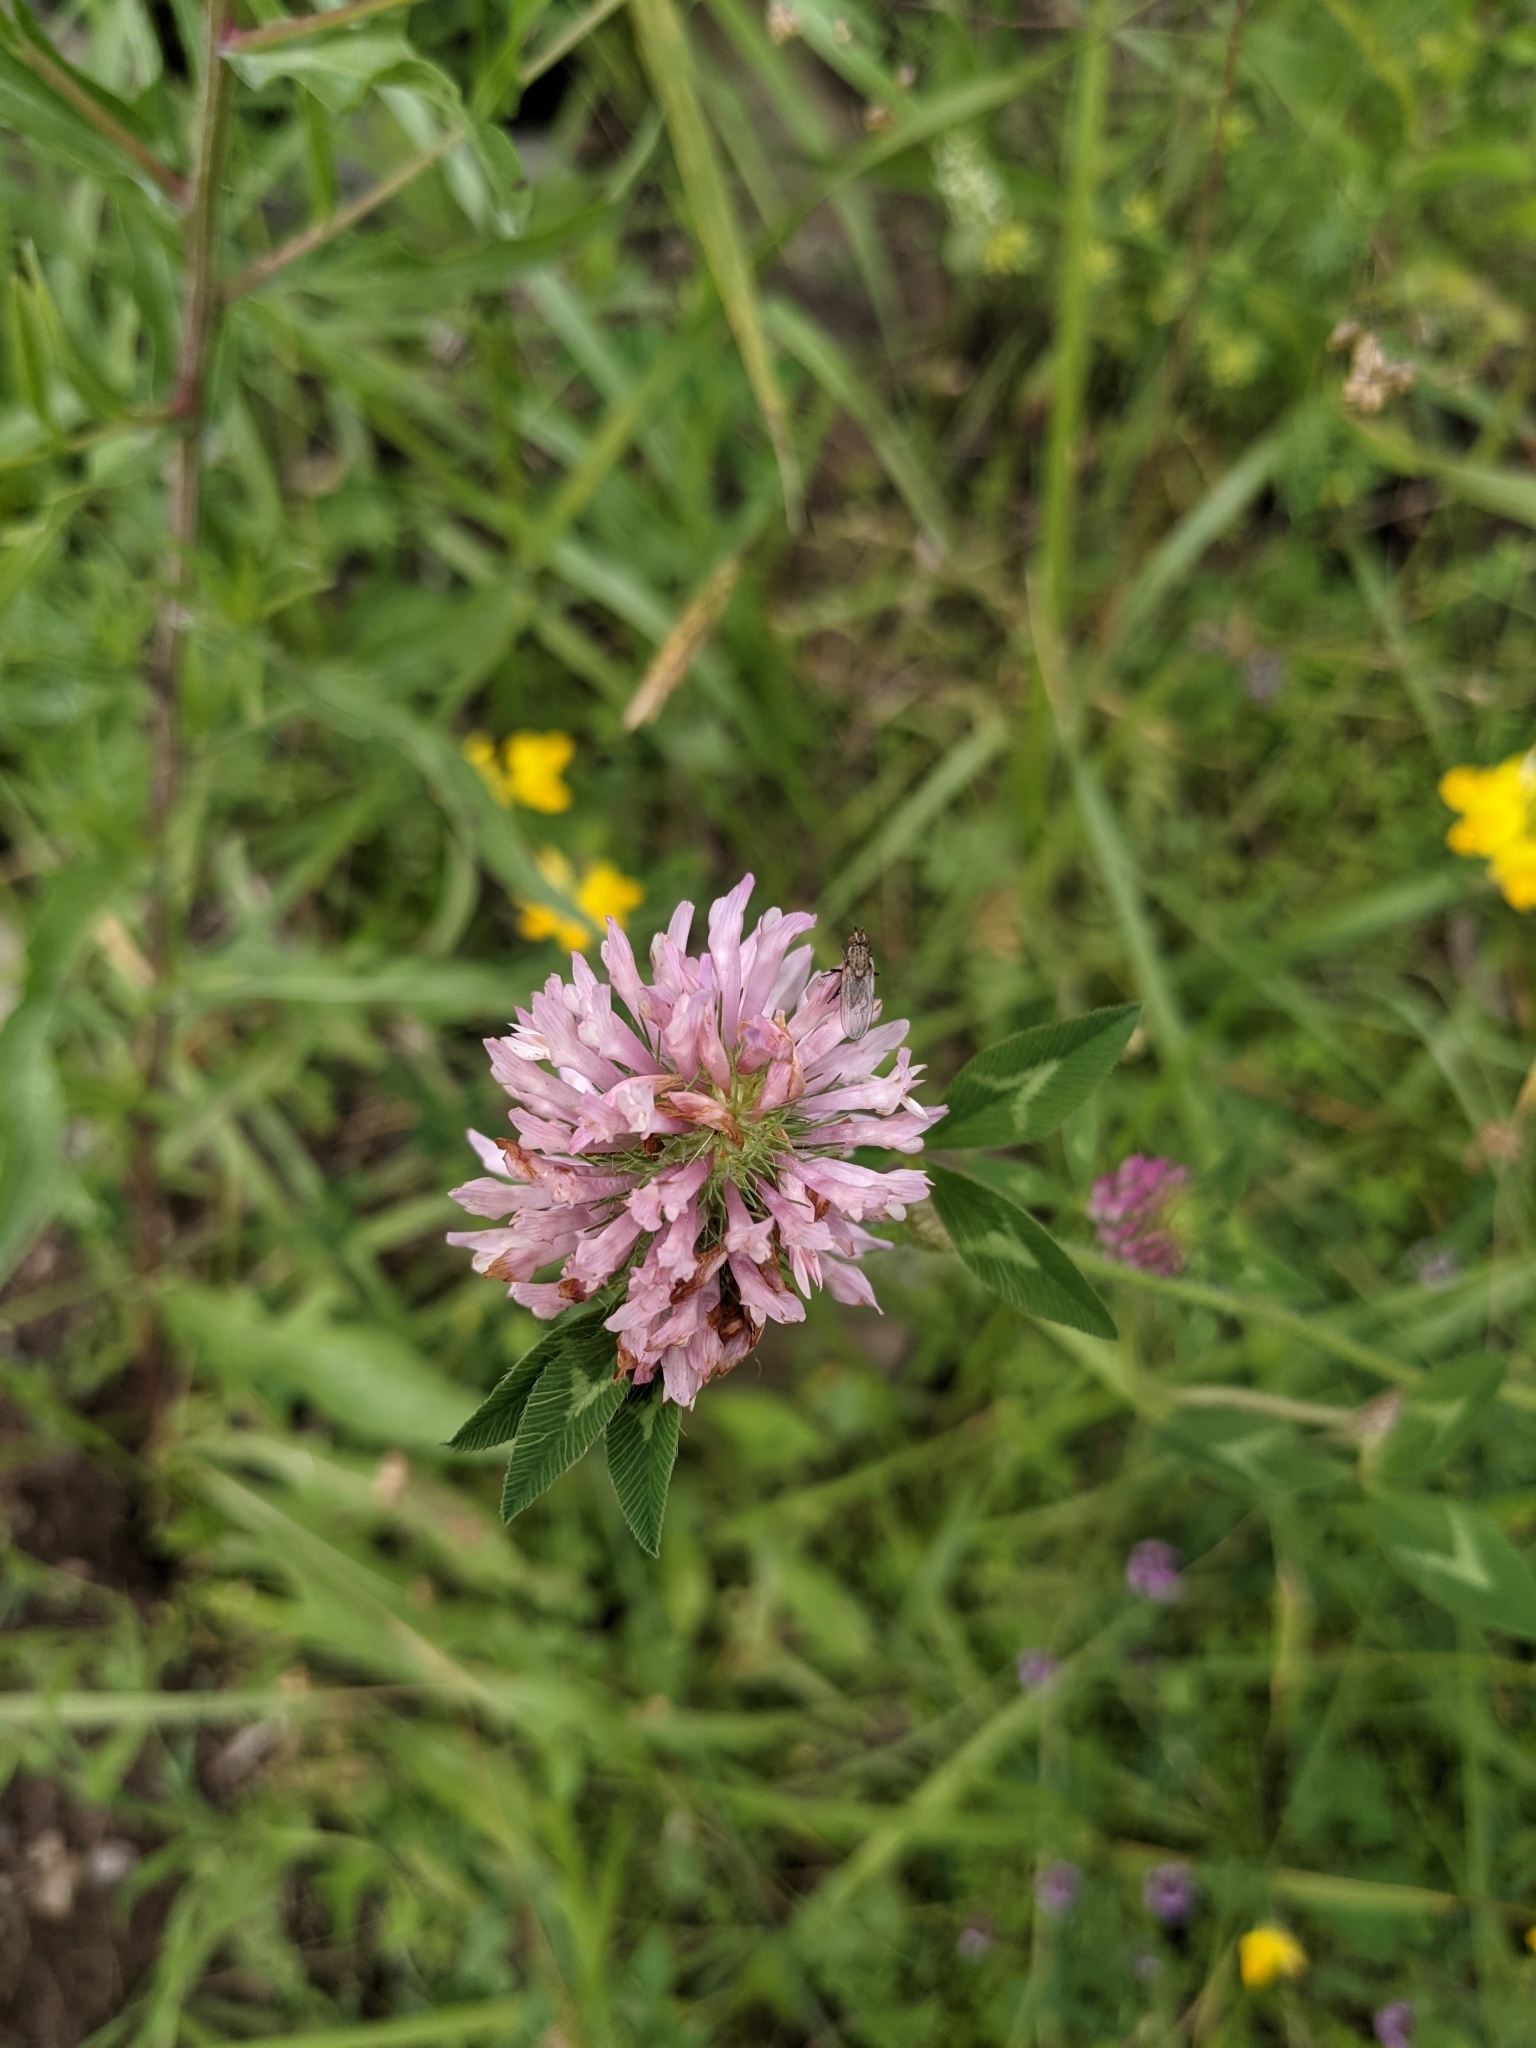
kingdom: Plantae
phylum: Tracheophyta
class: Magnoliopsida
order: Fabales
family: Fabaceae
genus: Trifolium
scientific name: Trifolium pratense
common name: Red clover
